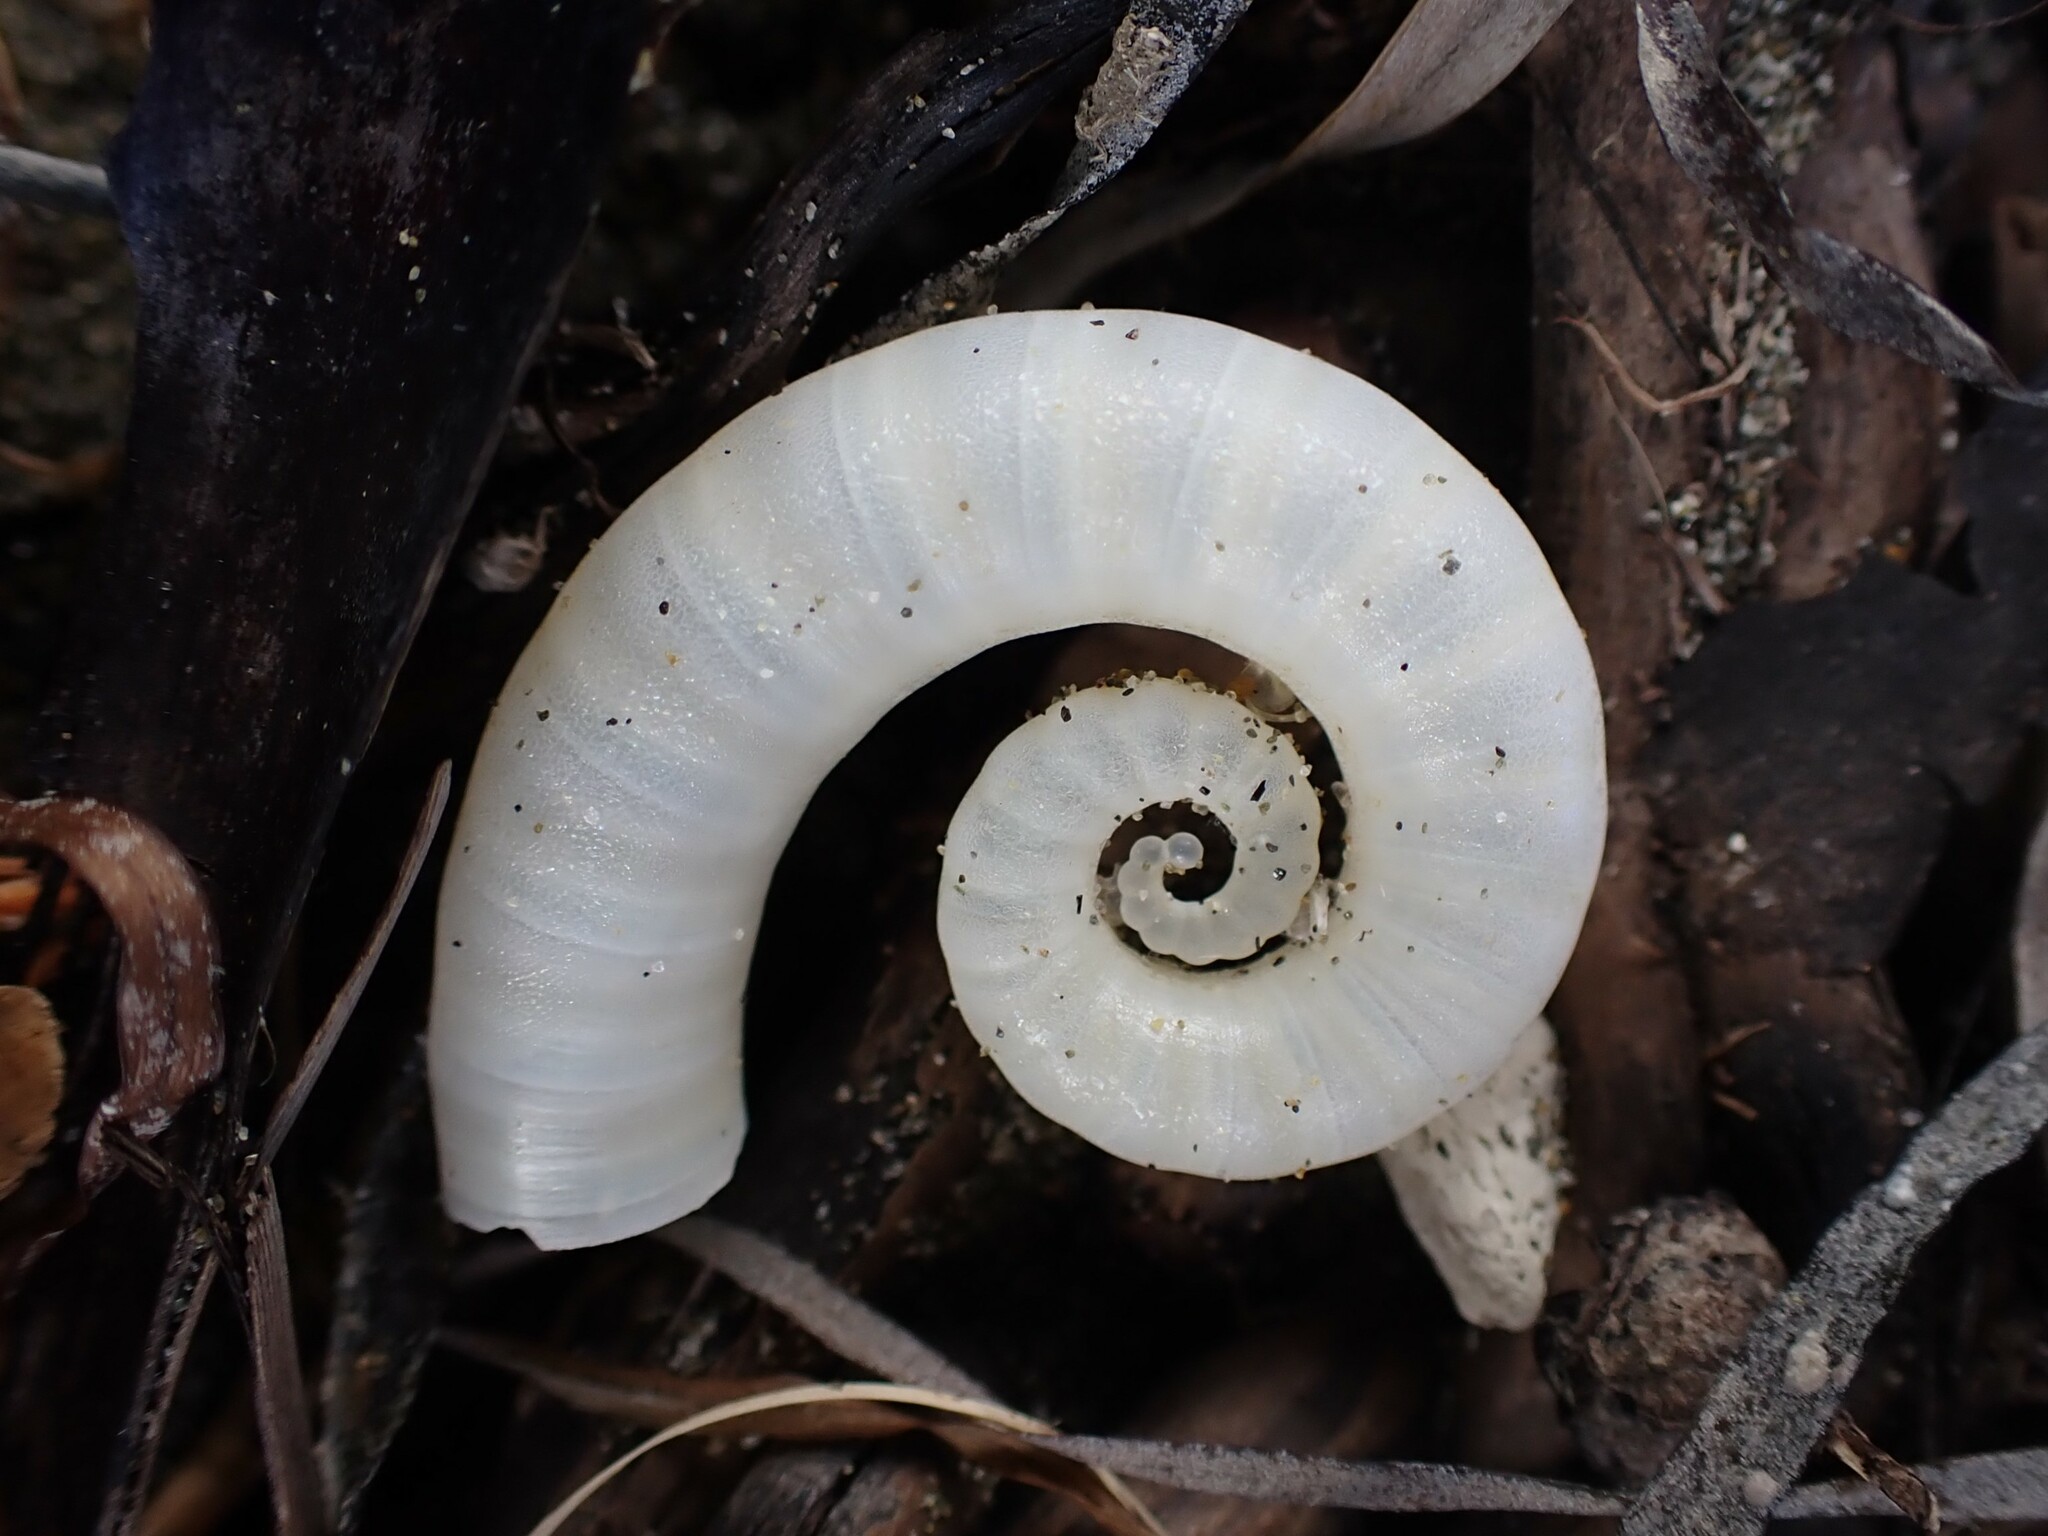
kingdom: Animalia
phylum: Mollusca
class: Cephalopoda
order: Spirulida
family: Spirulidae
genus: Spirula
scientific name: Spirula spirula
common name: Ram's horn squid
